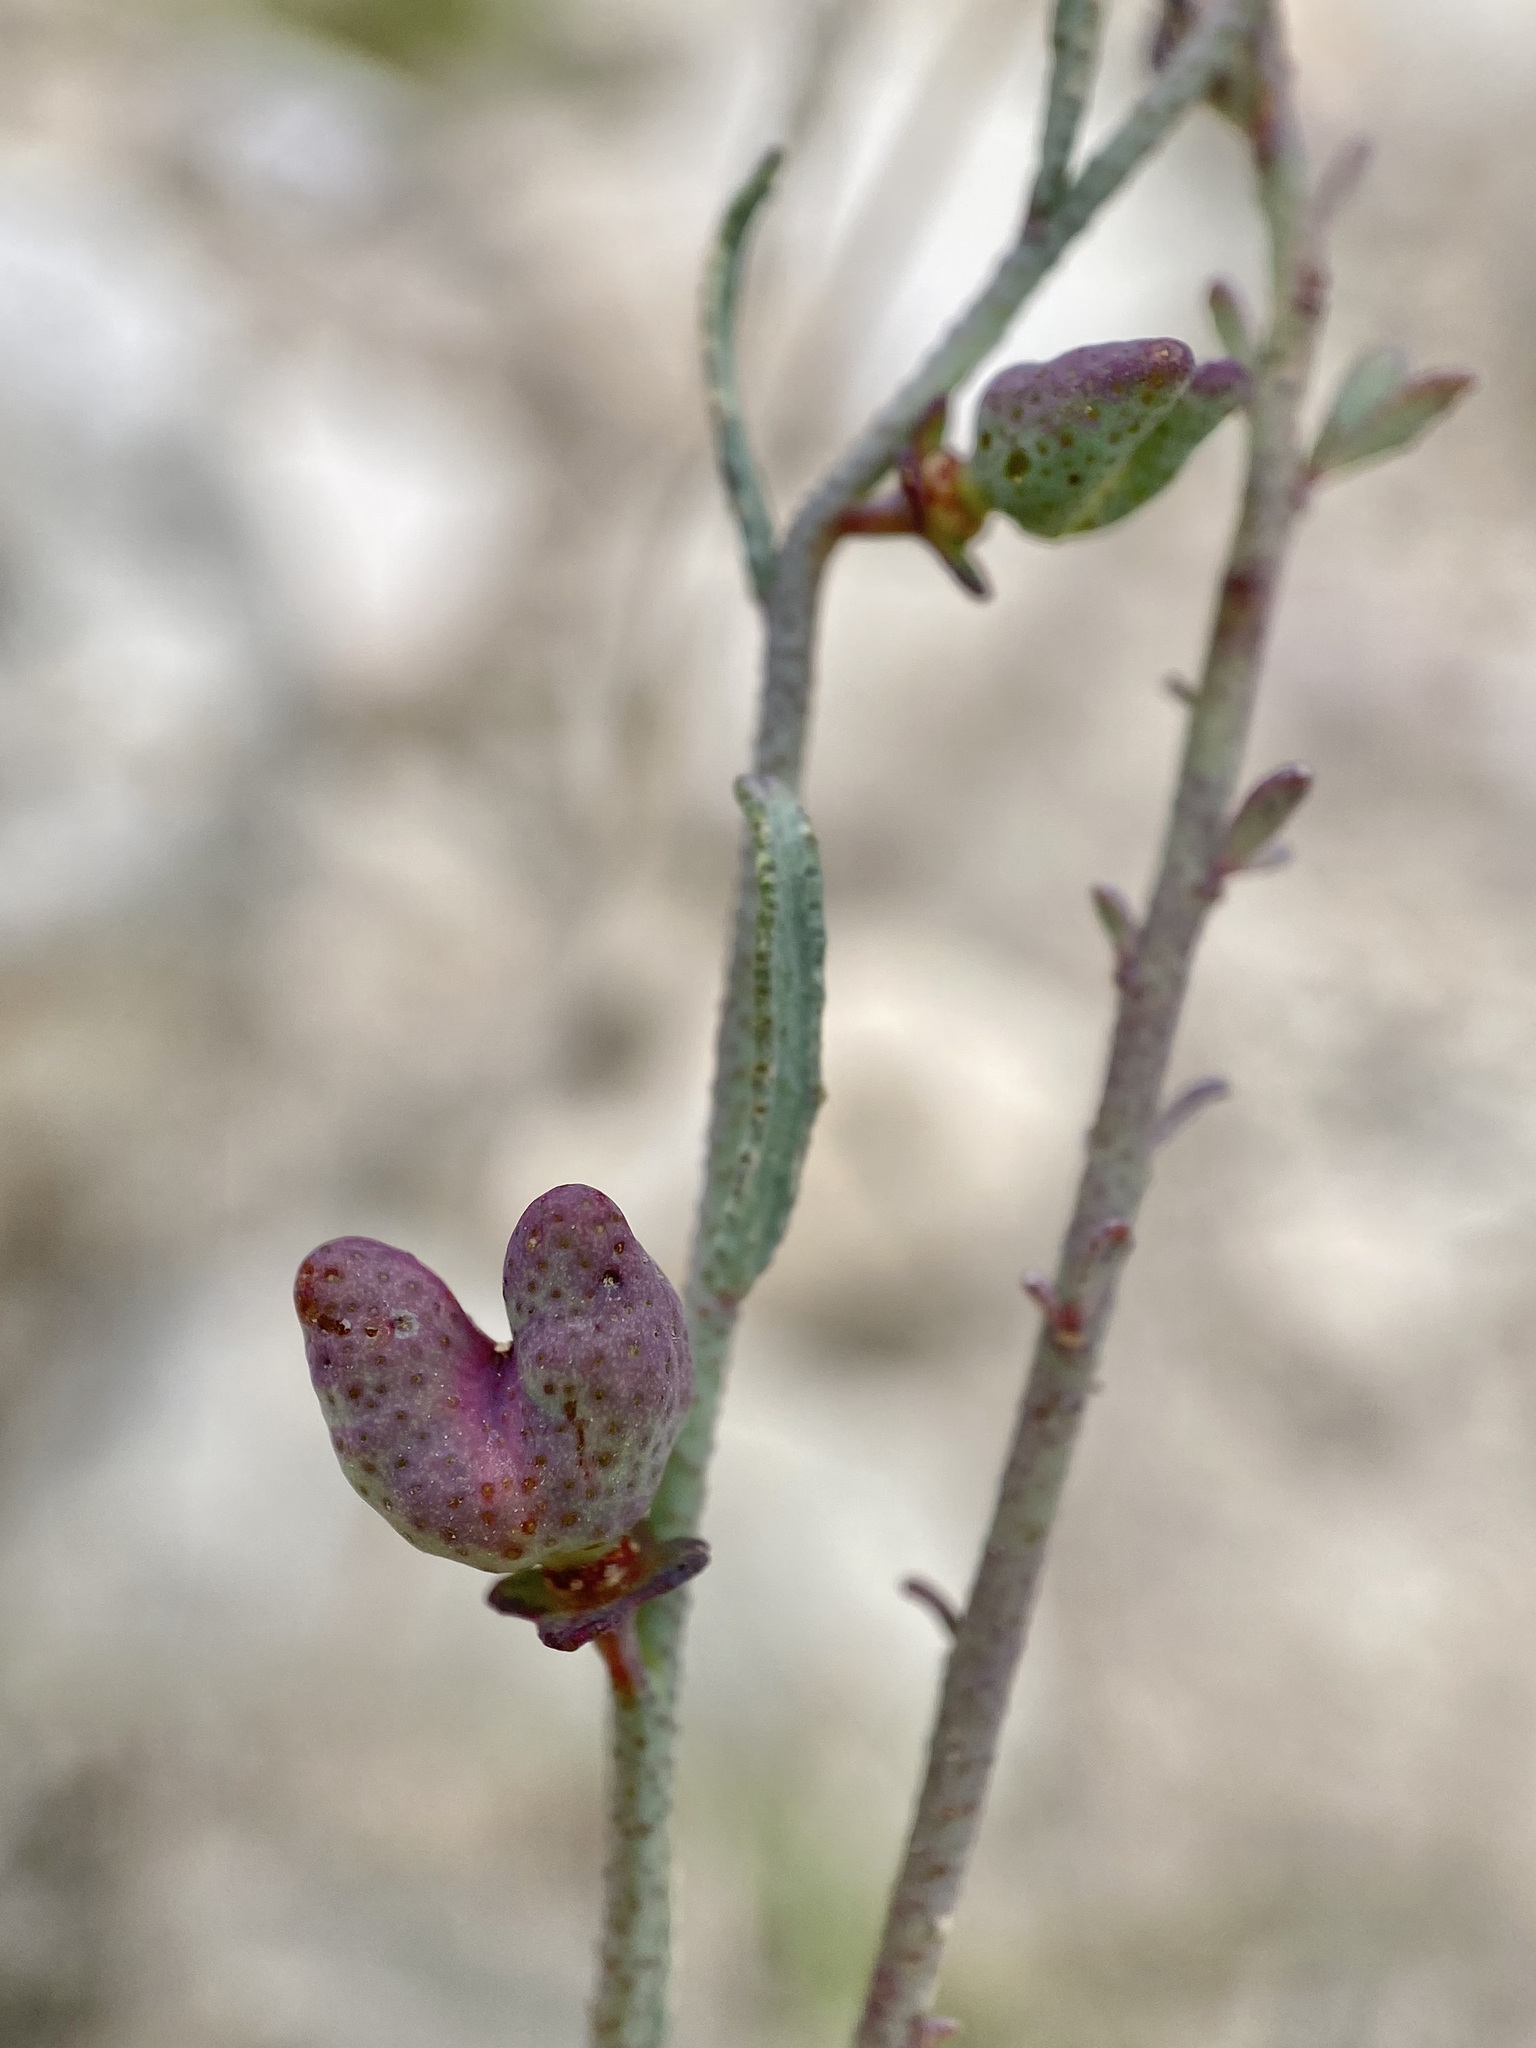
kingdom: Plantae
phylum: Tracheophyta
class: Magnoliopsida
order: Sapindales
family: Rutaceae
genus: Thamnosma
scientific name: Thamnosma texana
